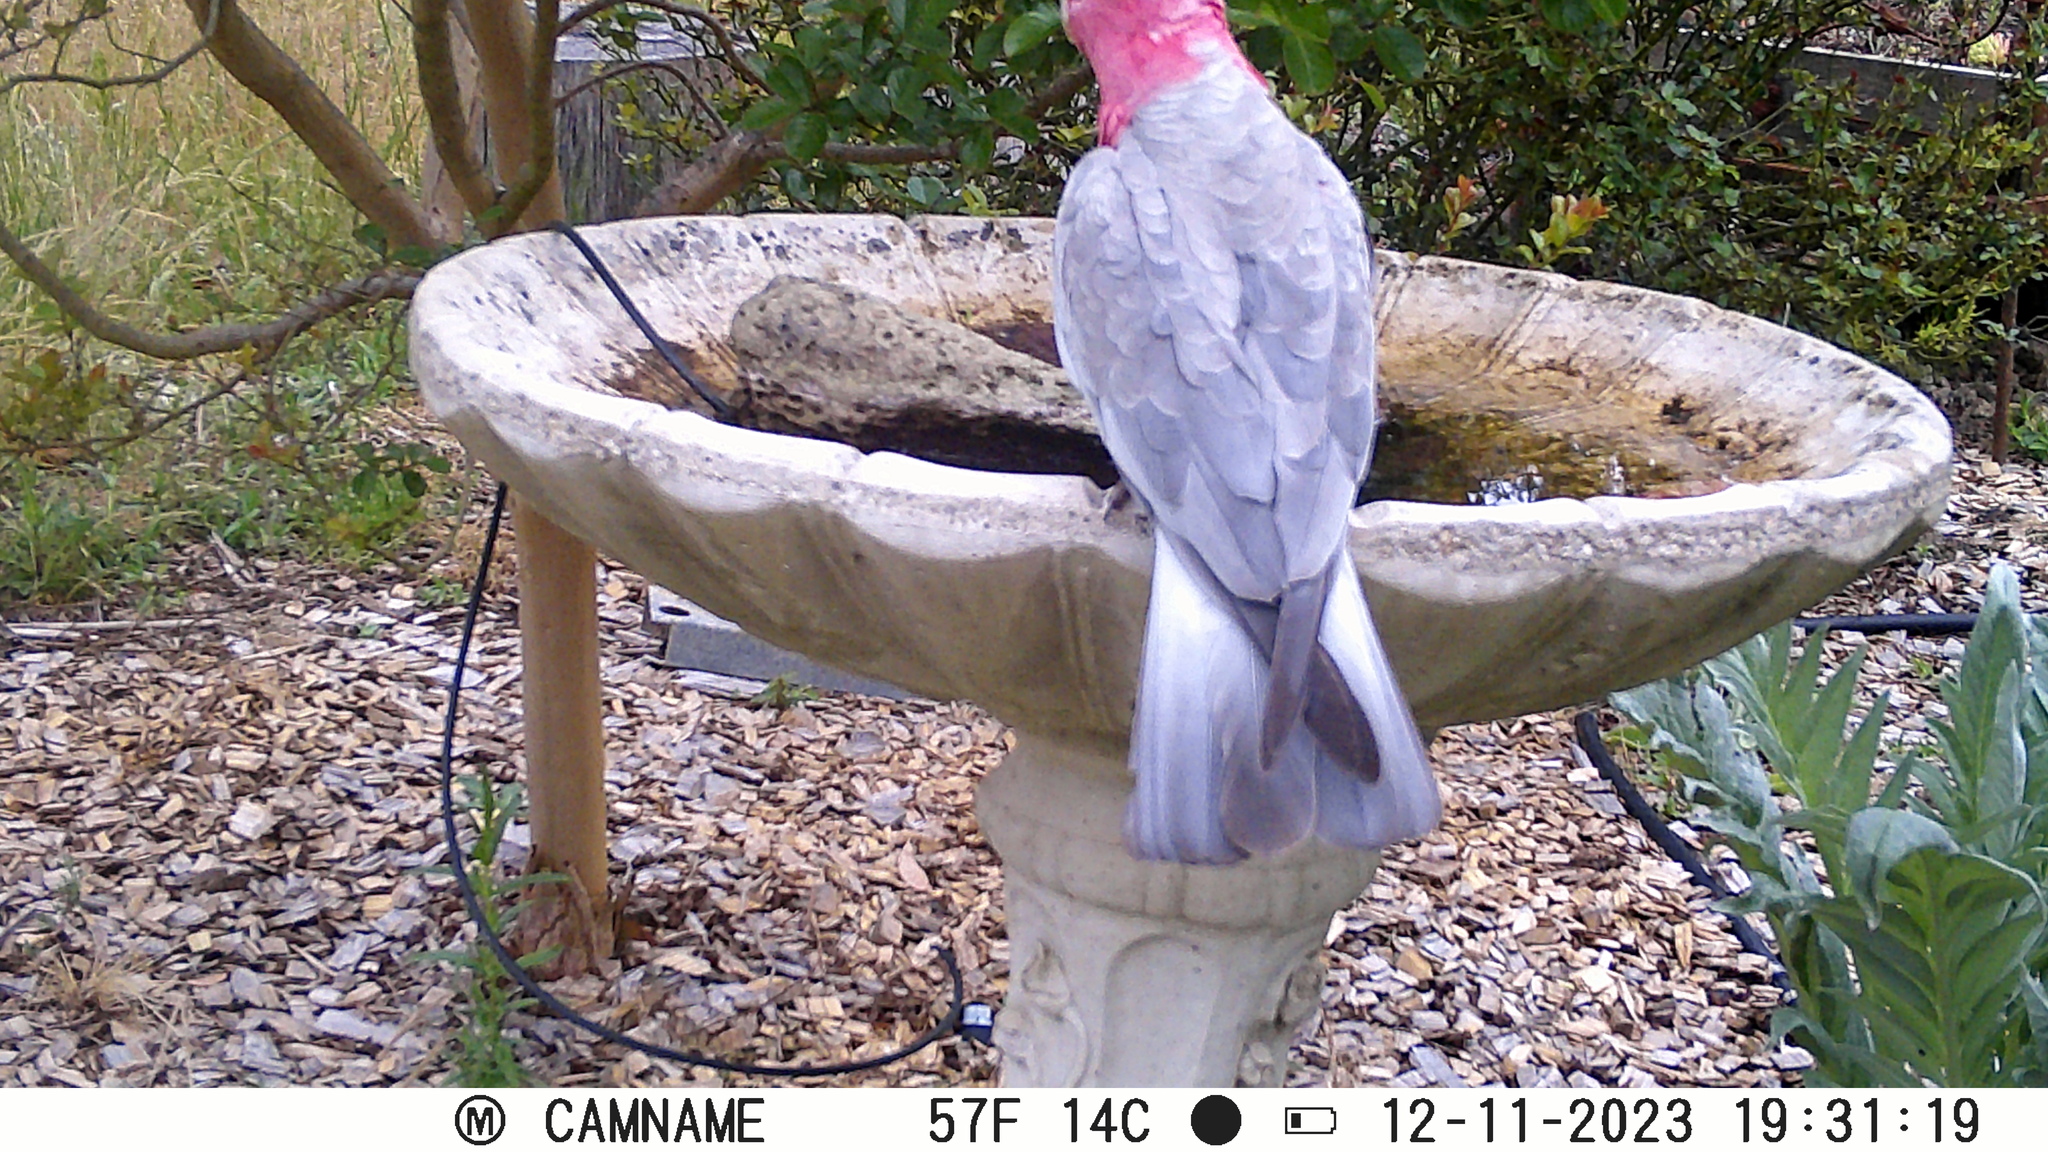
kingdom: Animalia
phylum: Chordata
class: Aves
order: Psittaciformes
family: Psittacidae
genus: Eolophus
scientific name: Eolophus roseicapilla
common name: Galah
